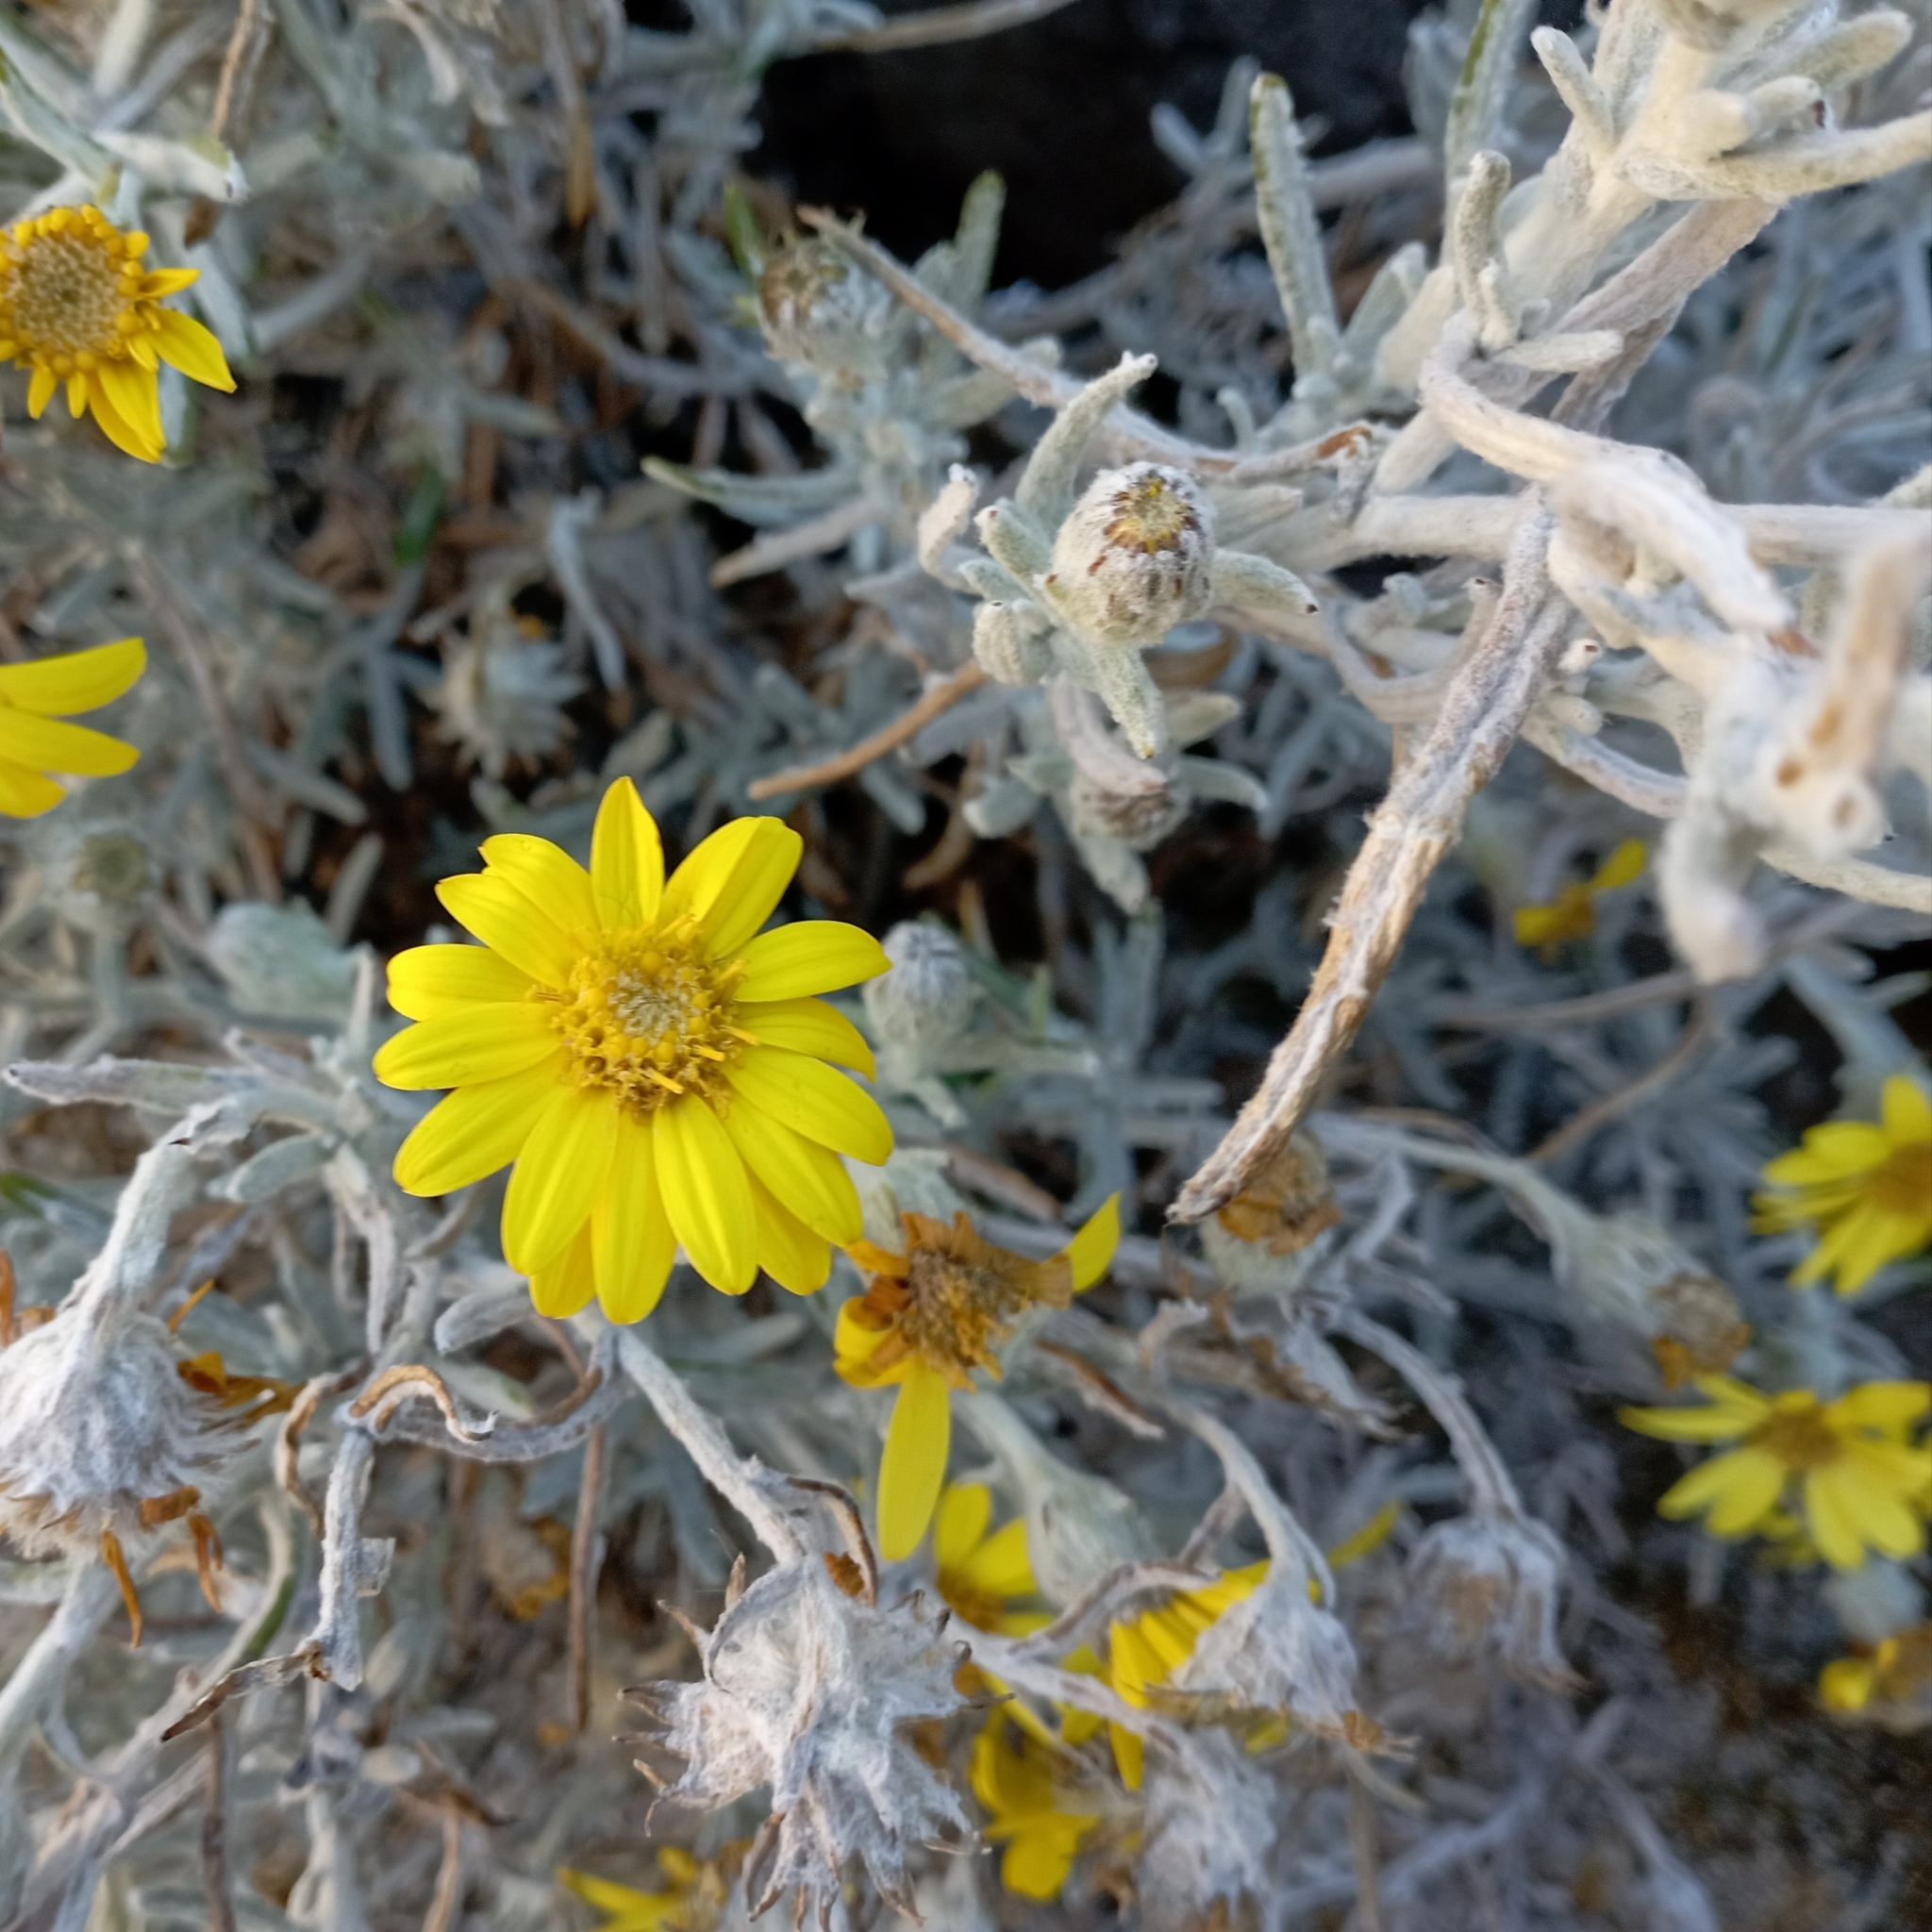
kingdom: Plantae
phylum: Tracheophyta
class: Magnoliopsida
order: Asterales
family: Asteraceae
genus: Senecio
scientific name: Senecio mairetianus
